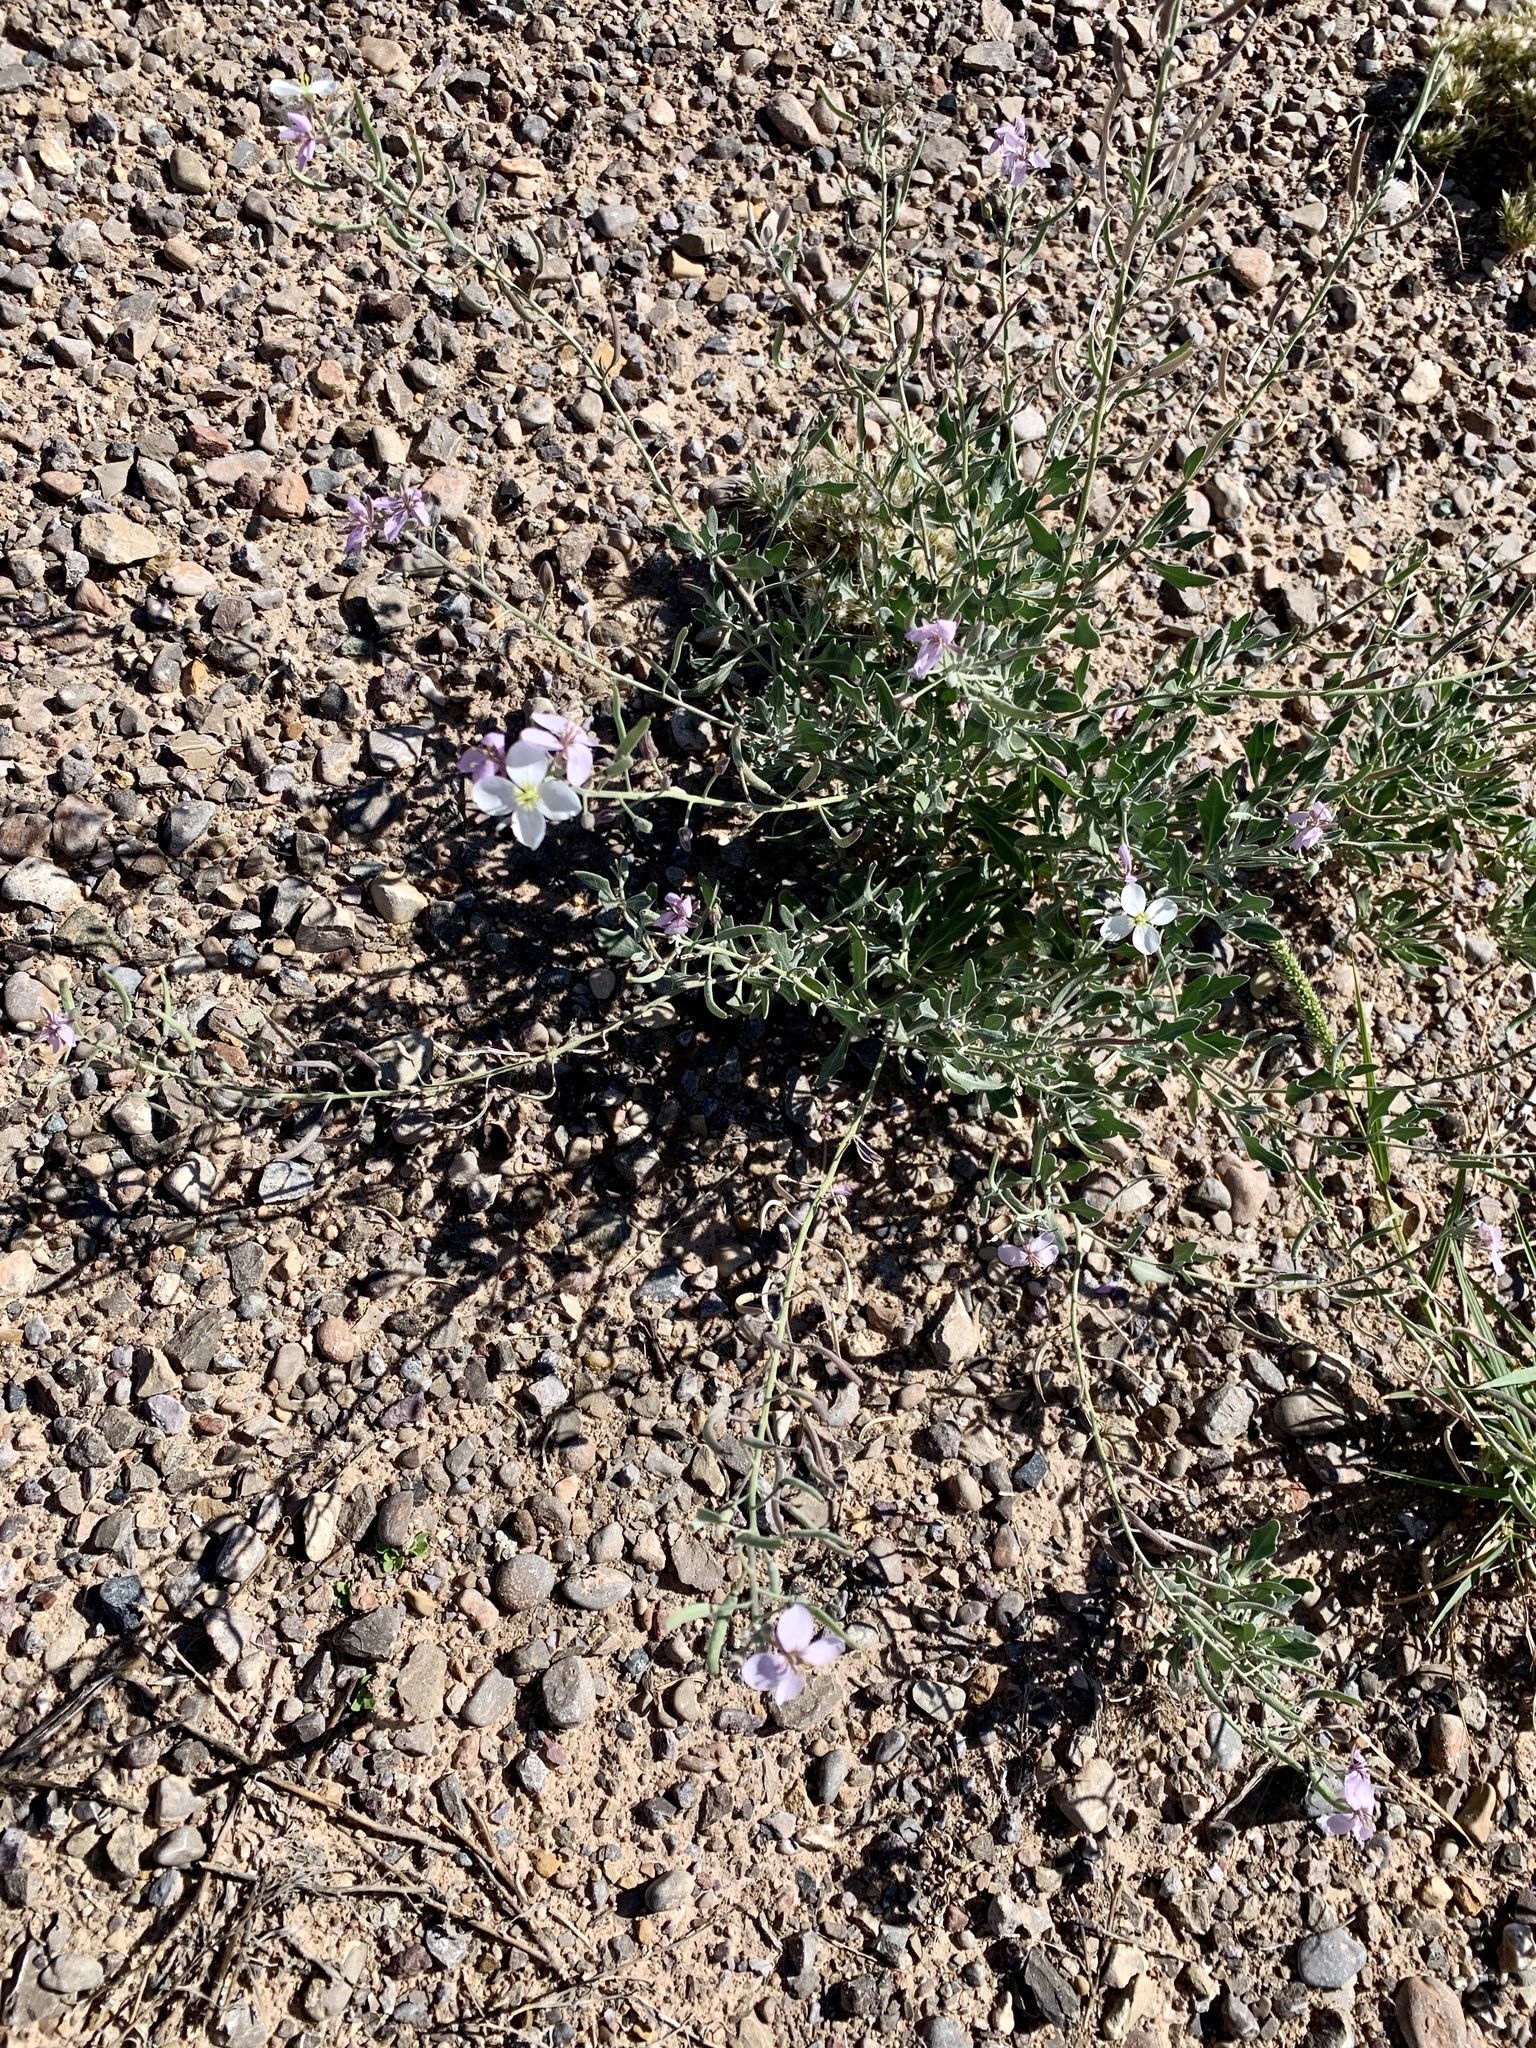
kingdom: Plantae
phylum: Tracheophyta
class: Magnoliopsida
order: Brassicales
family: Brassicaceae
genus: Nerisyrenia
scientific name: Nerisyrenia camporum
